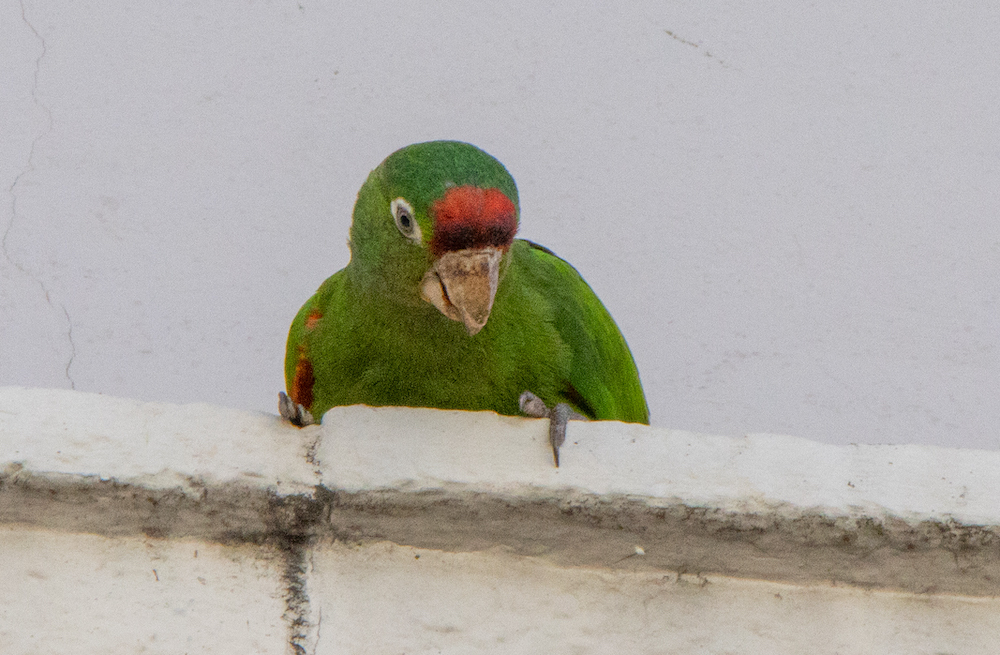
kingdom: Animalia
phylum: Chordata
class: Aves
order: Psittaciformes
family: Psittacidae
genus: Aratinga
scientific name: Aratinga finschi
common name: Crimson-fronted parakeet
